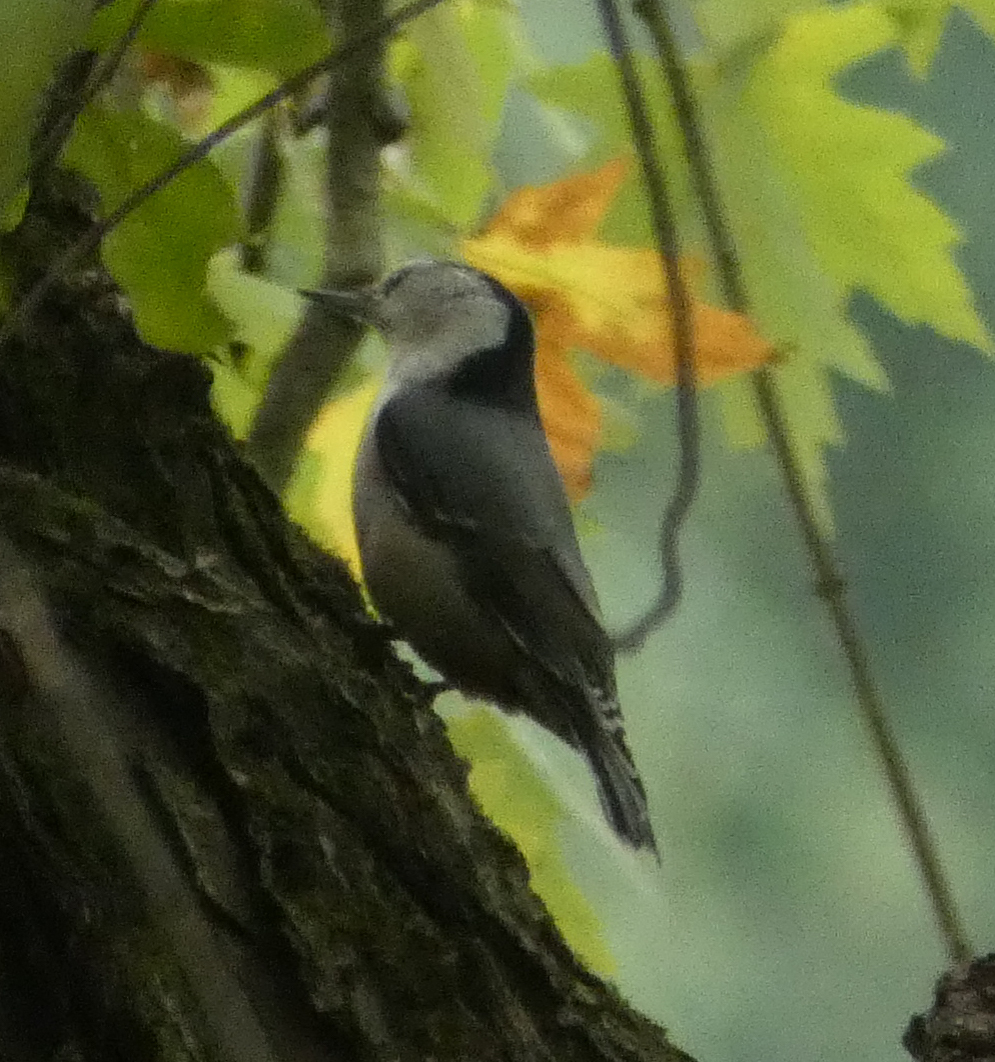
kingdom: Animalia
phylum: Chordata
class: Aves
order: Passeriformes
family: Sittidae
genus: Sitta
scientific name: Sitta carolinensis
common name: White-breasted nuthatch
